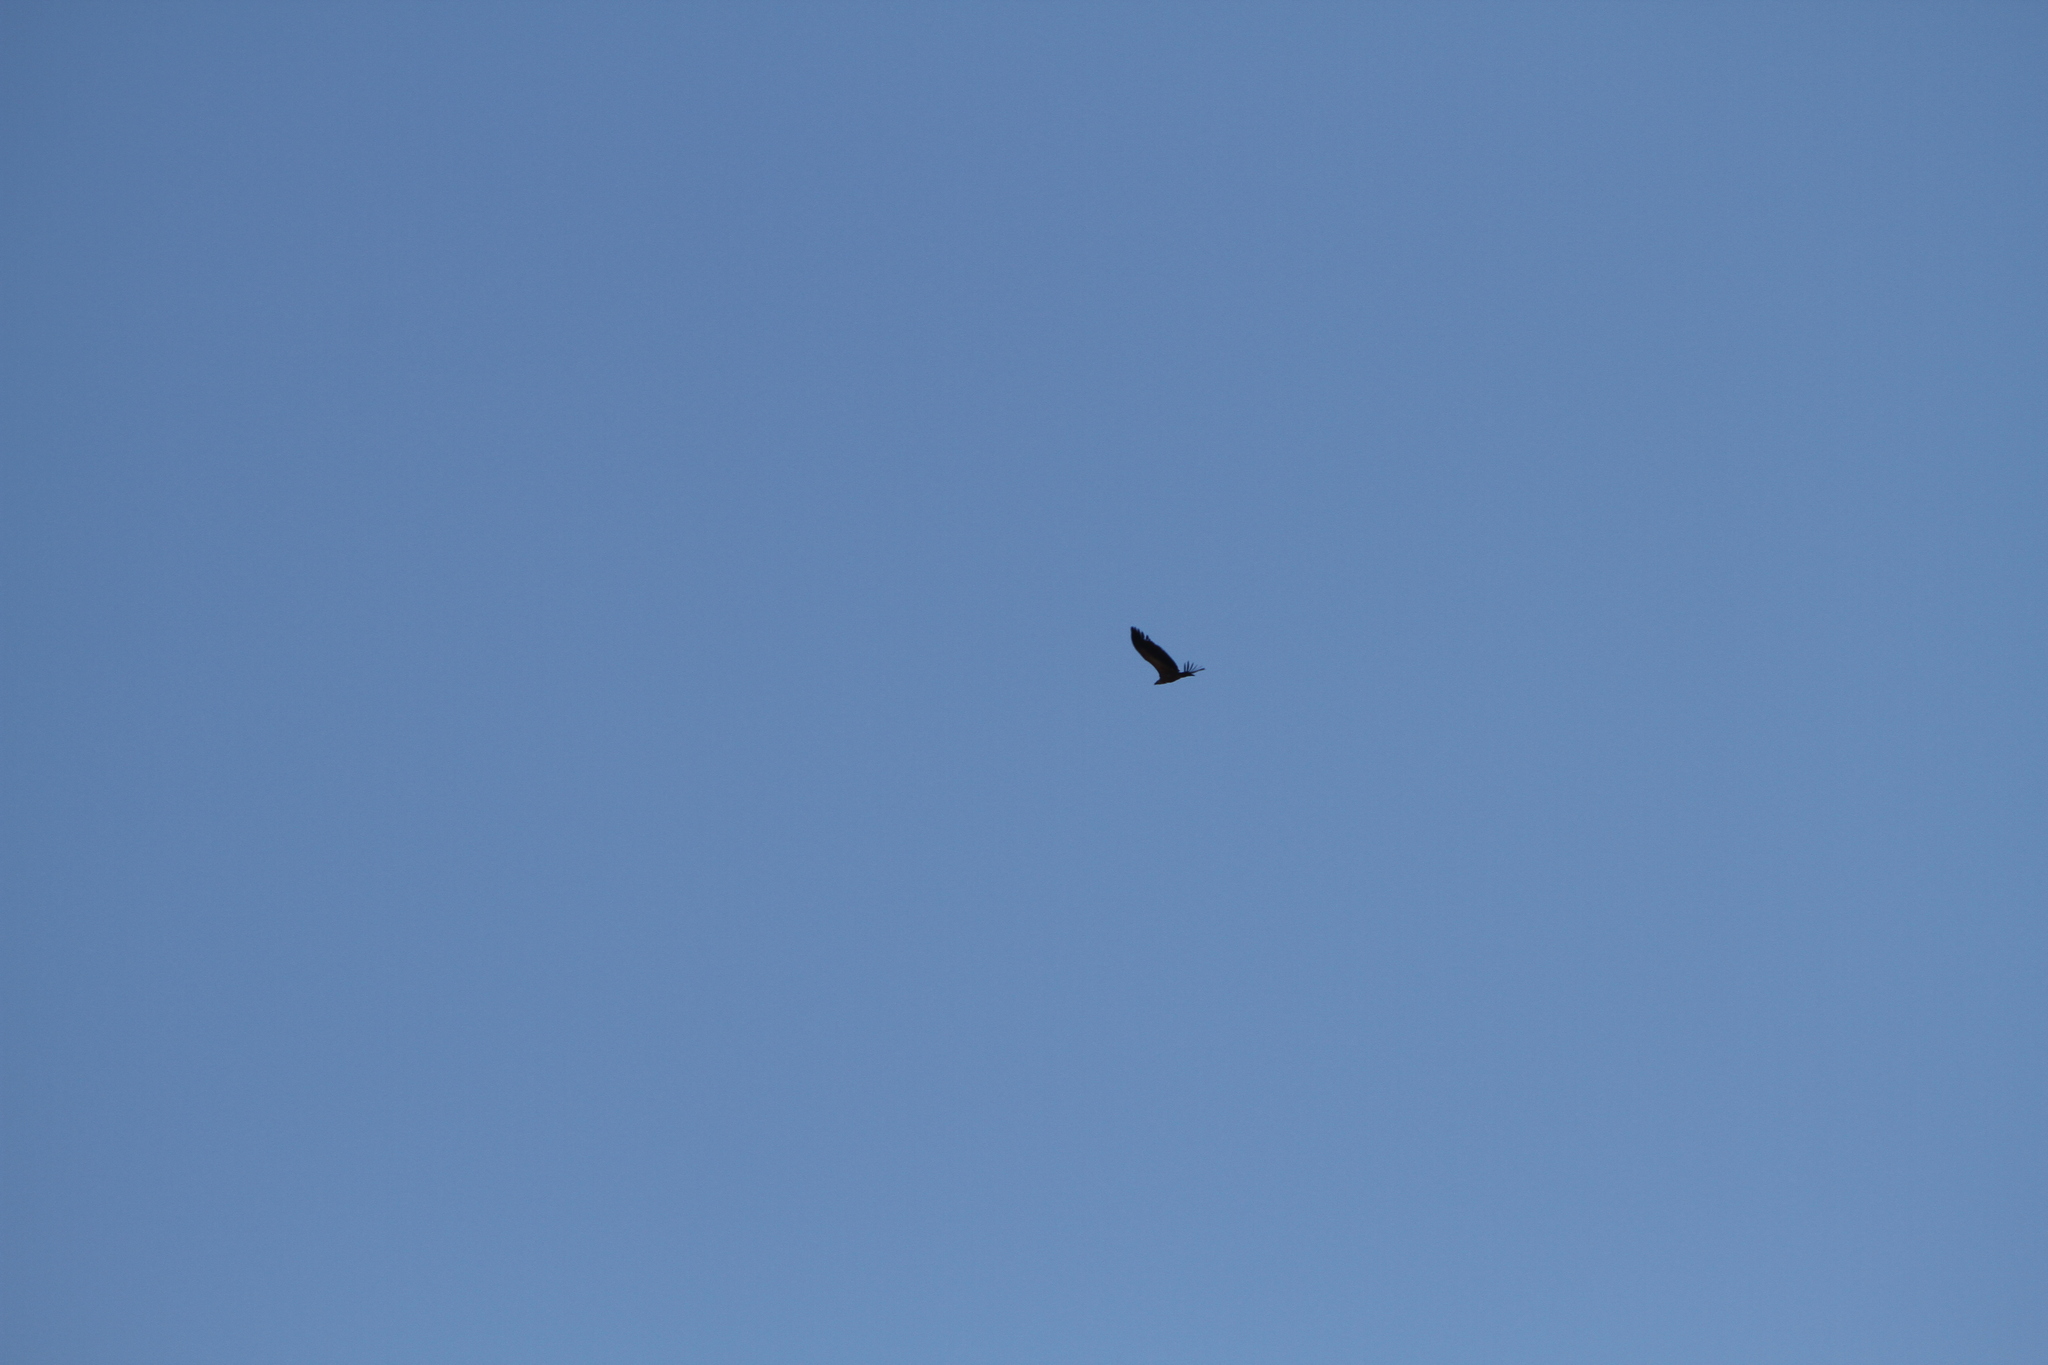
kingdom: Animalia
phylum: Chordata
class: Aves
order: Accipitriformes
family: Accipitridae
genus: Gyps
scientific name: Gyps fulvus
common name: Griffon vulture
